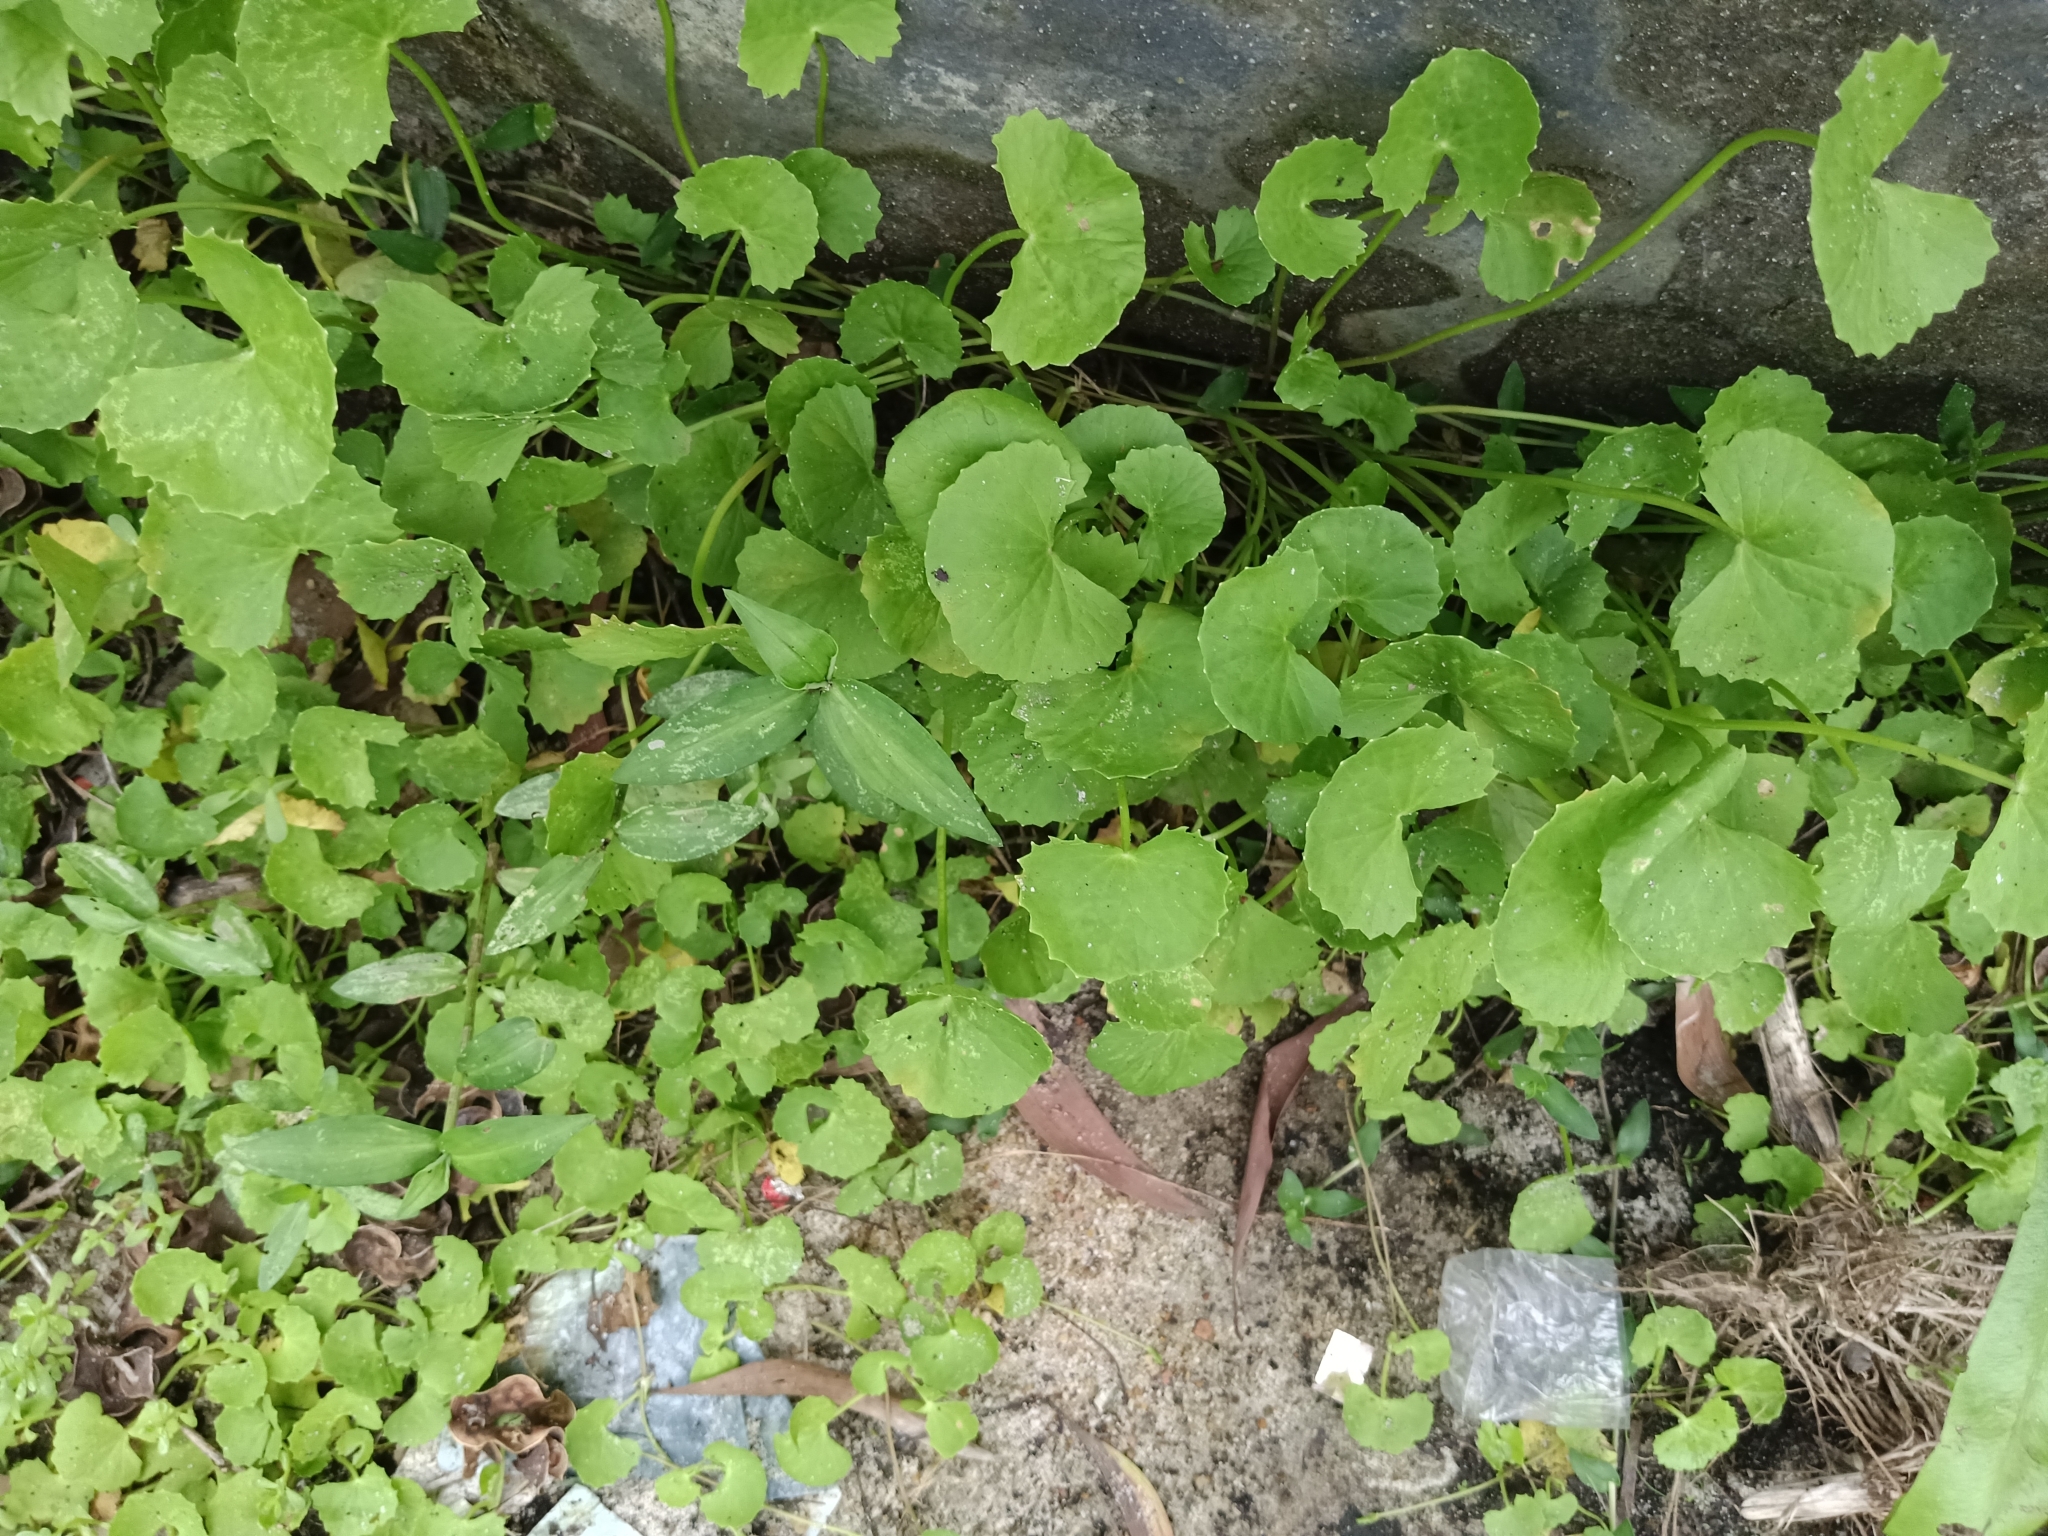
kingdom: Plantae
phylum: Tracheophyta
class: Magnoliopsida
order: Apiales
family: Apiaceae
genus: Centella
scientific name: Centella asiatica
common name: Spadeleaf
